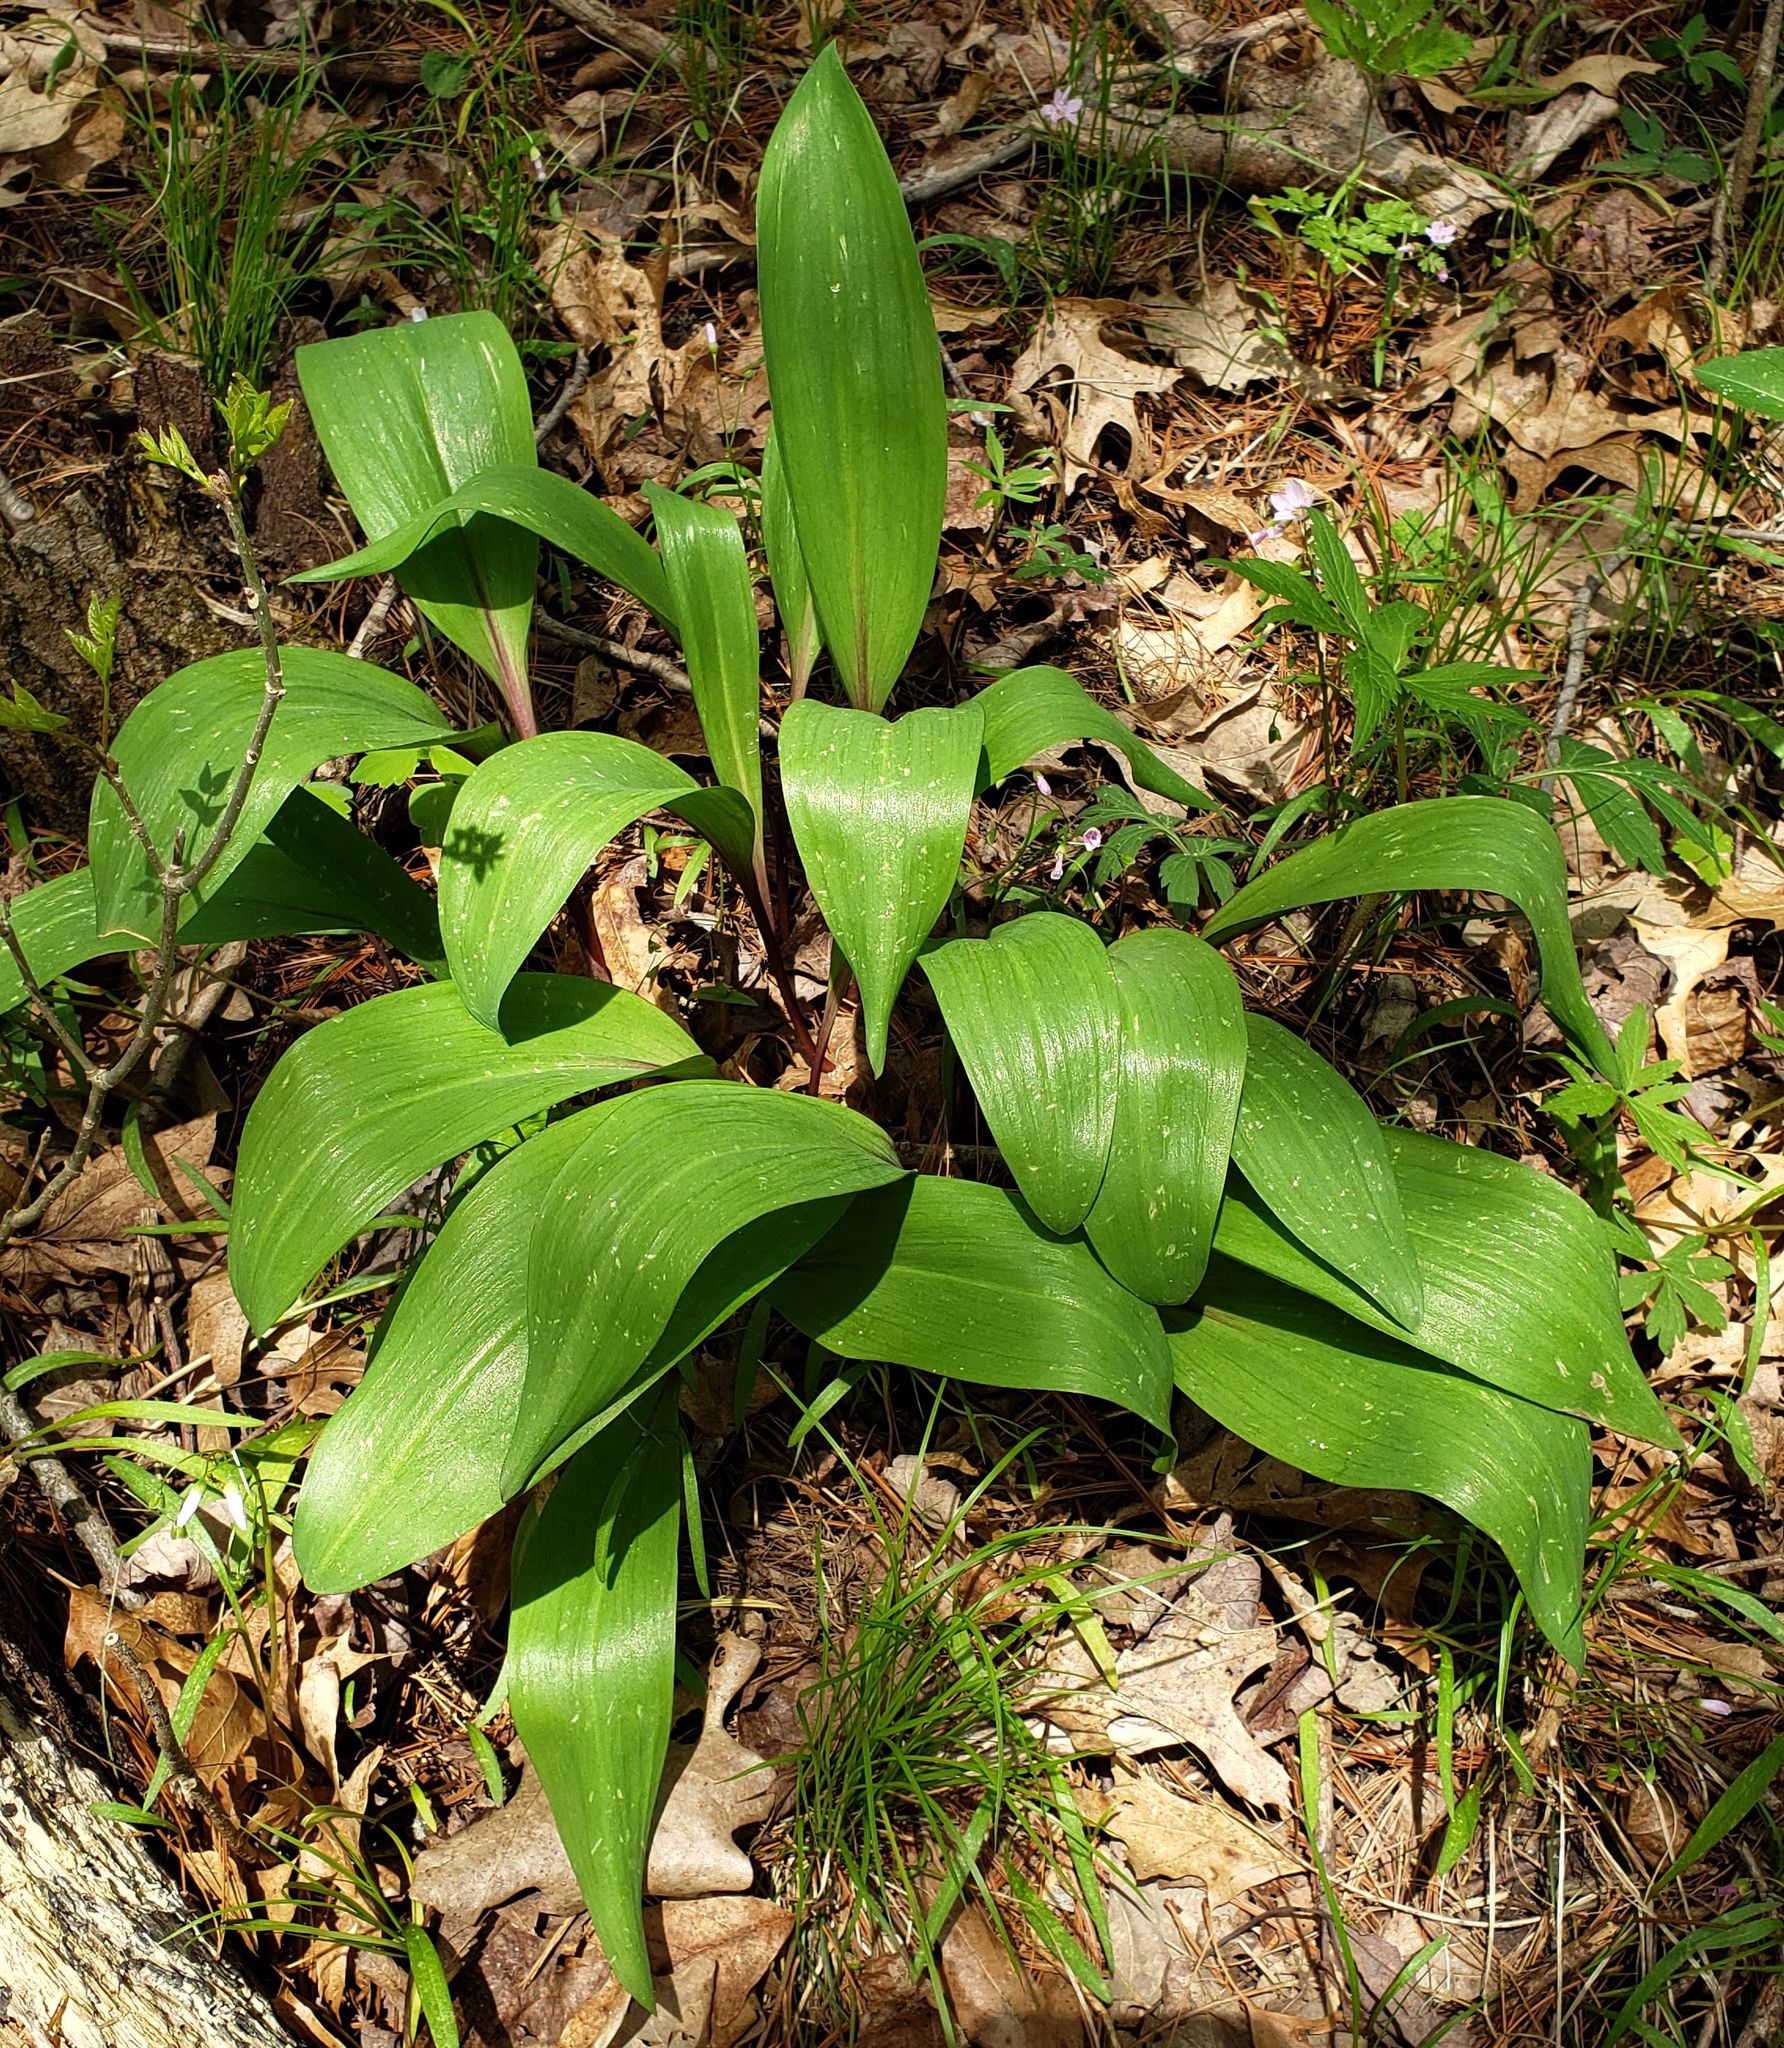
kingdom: Plantae
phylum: Tracheophyta
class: Liliopsida
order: Asparagales
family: Amaryllidaceae
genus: Allium
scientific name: Allium tricoccum
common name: Ramp
